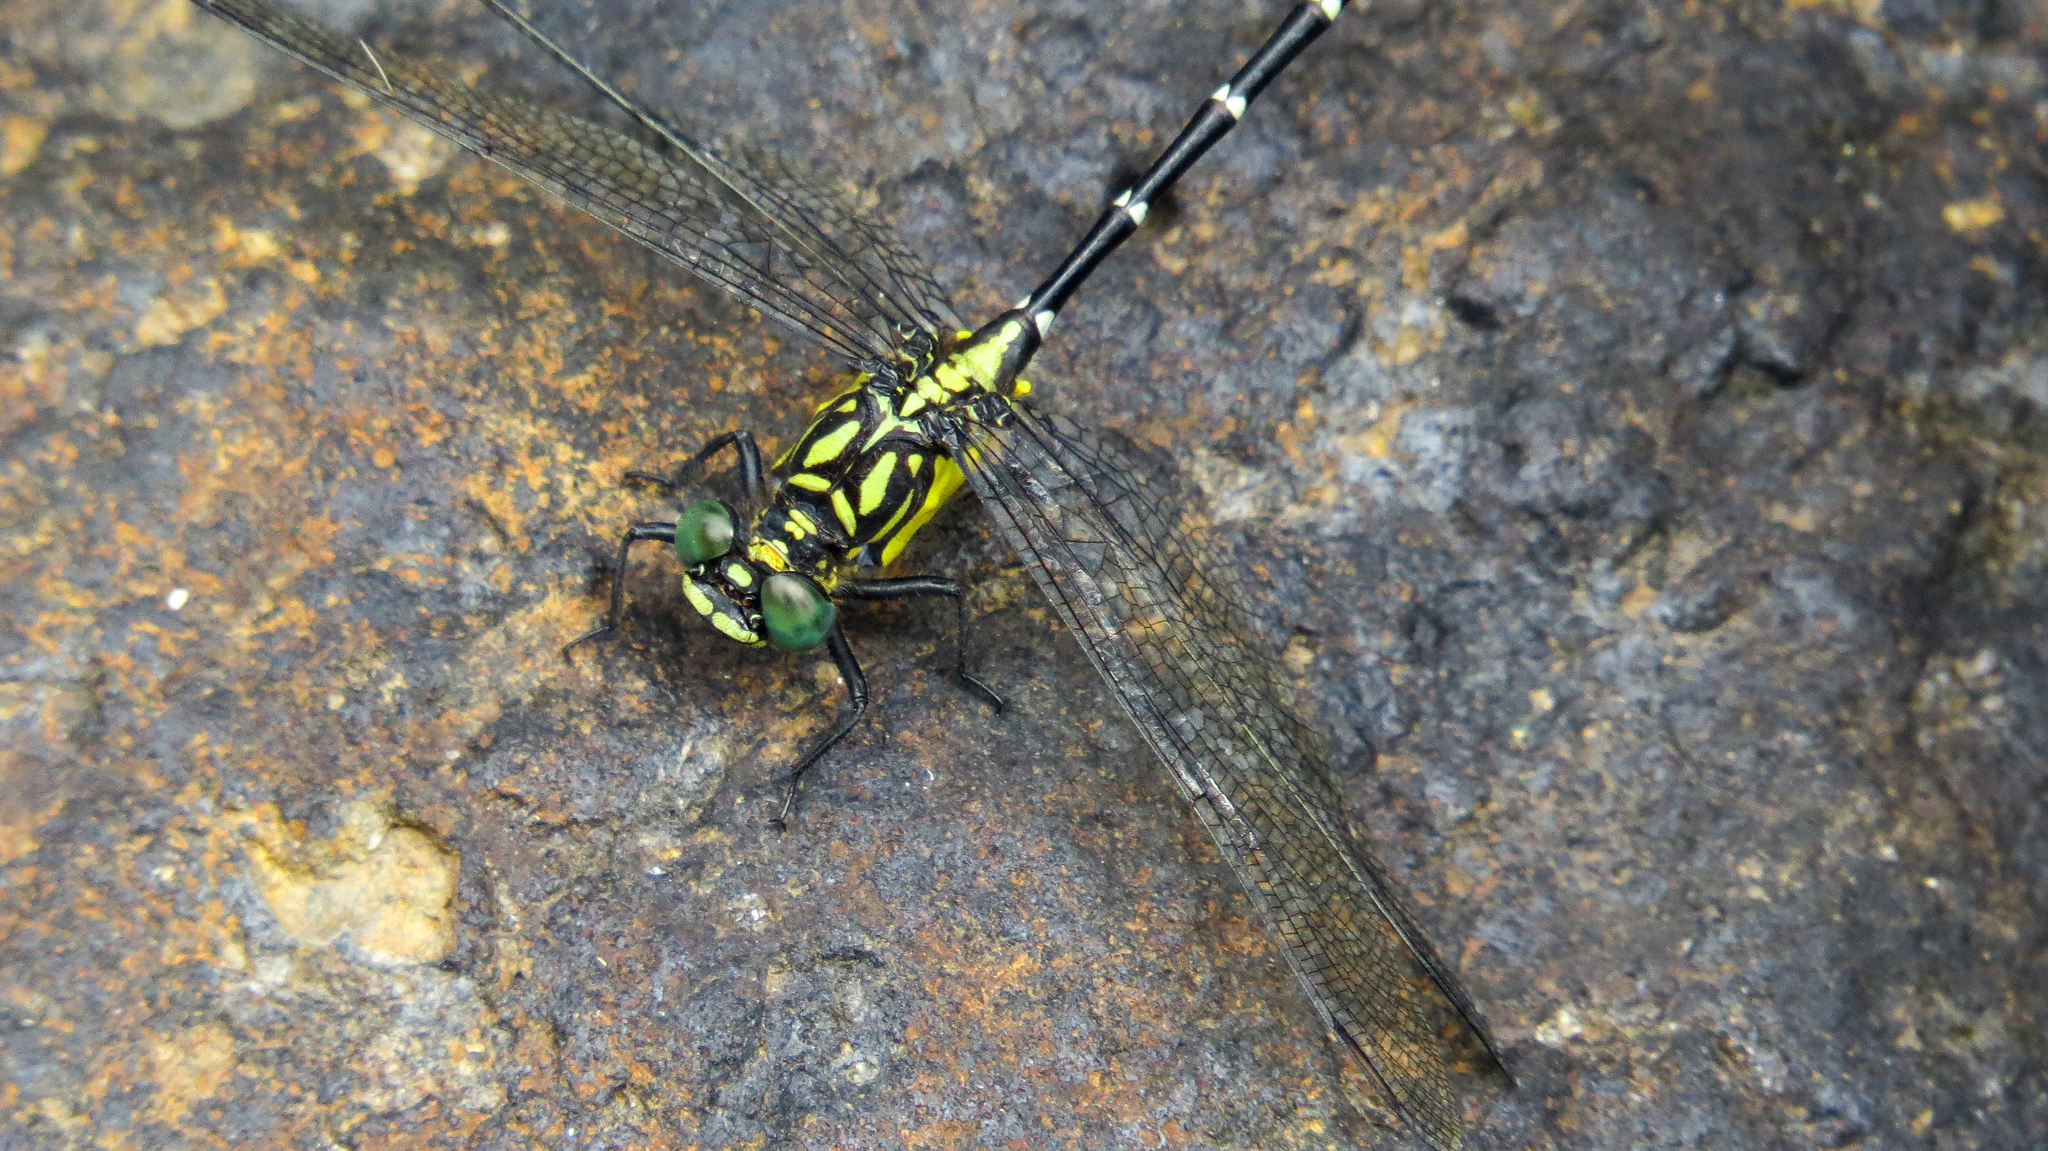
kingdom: Animalia
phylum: Arthropoda
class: Insecta
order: Odonata
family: Gomphidae
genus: Hemigomphus
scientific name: Hemigomphus gouldii
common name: Southern vicetail
